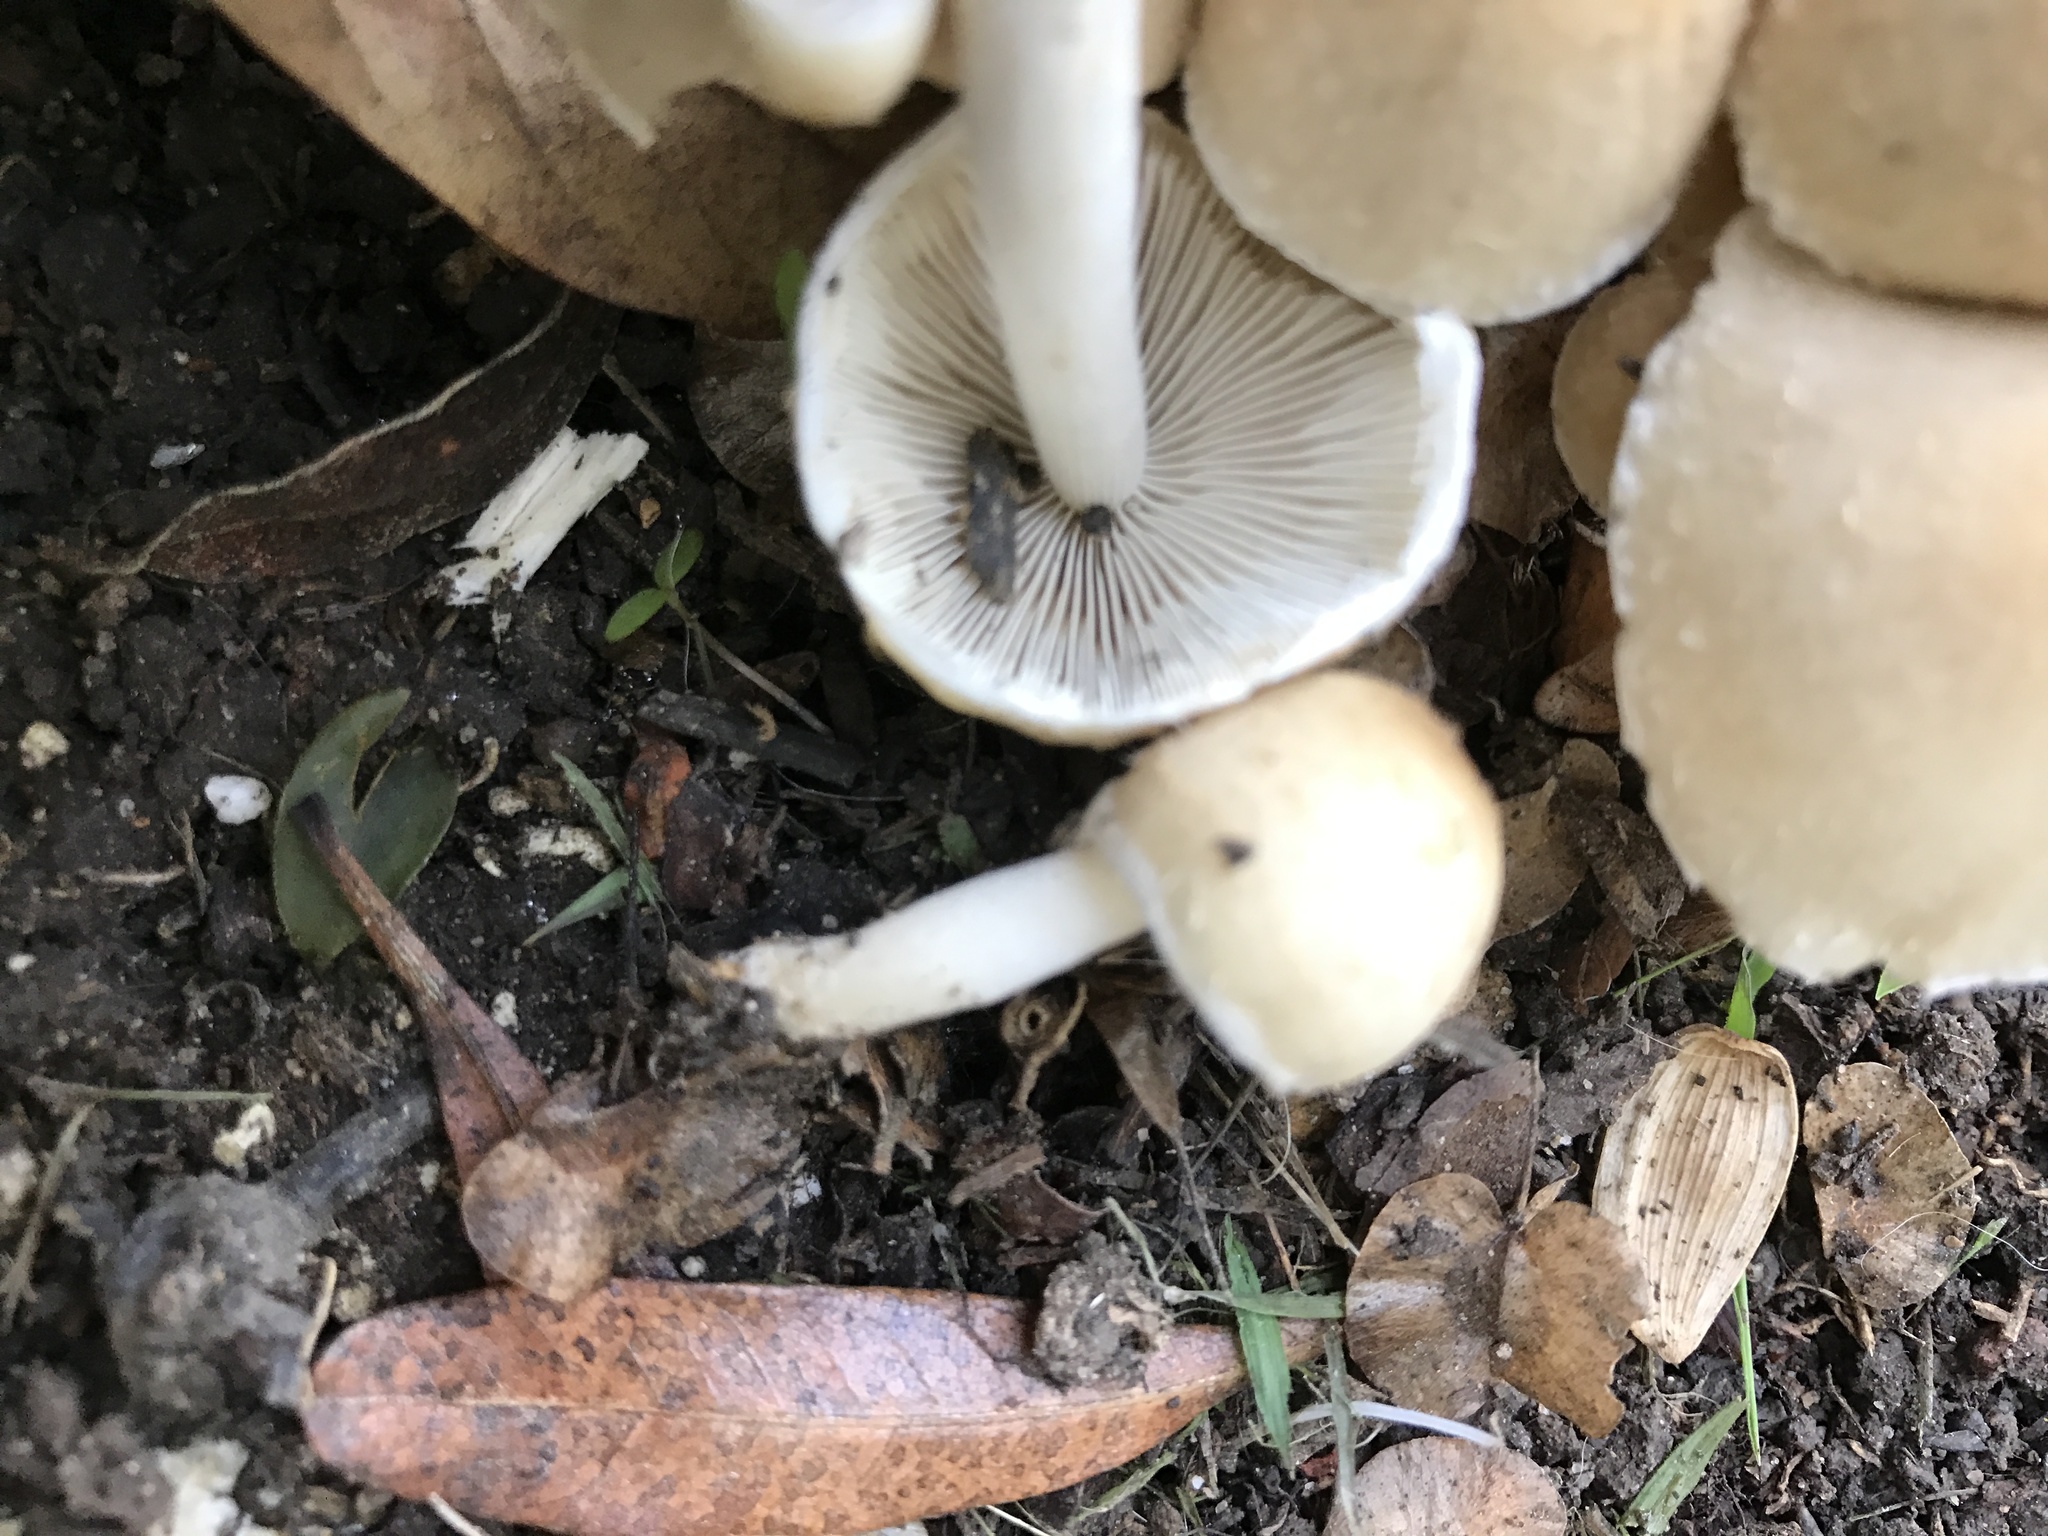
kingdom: Fungi
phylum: Basidiomycota
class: Agaricomycetes
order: Agaricales
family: Psathyrellaceae
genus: Candolleomyces
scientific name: Candolleomyces candolleanus
